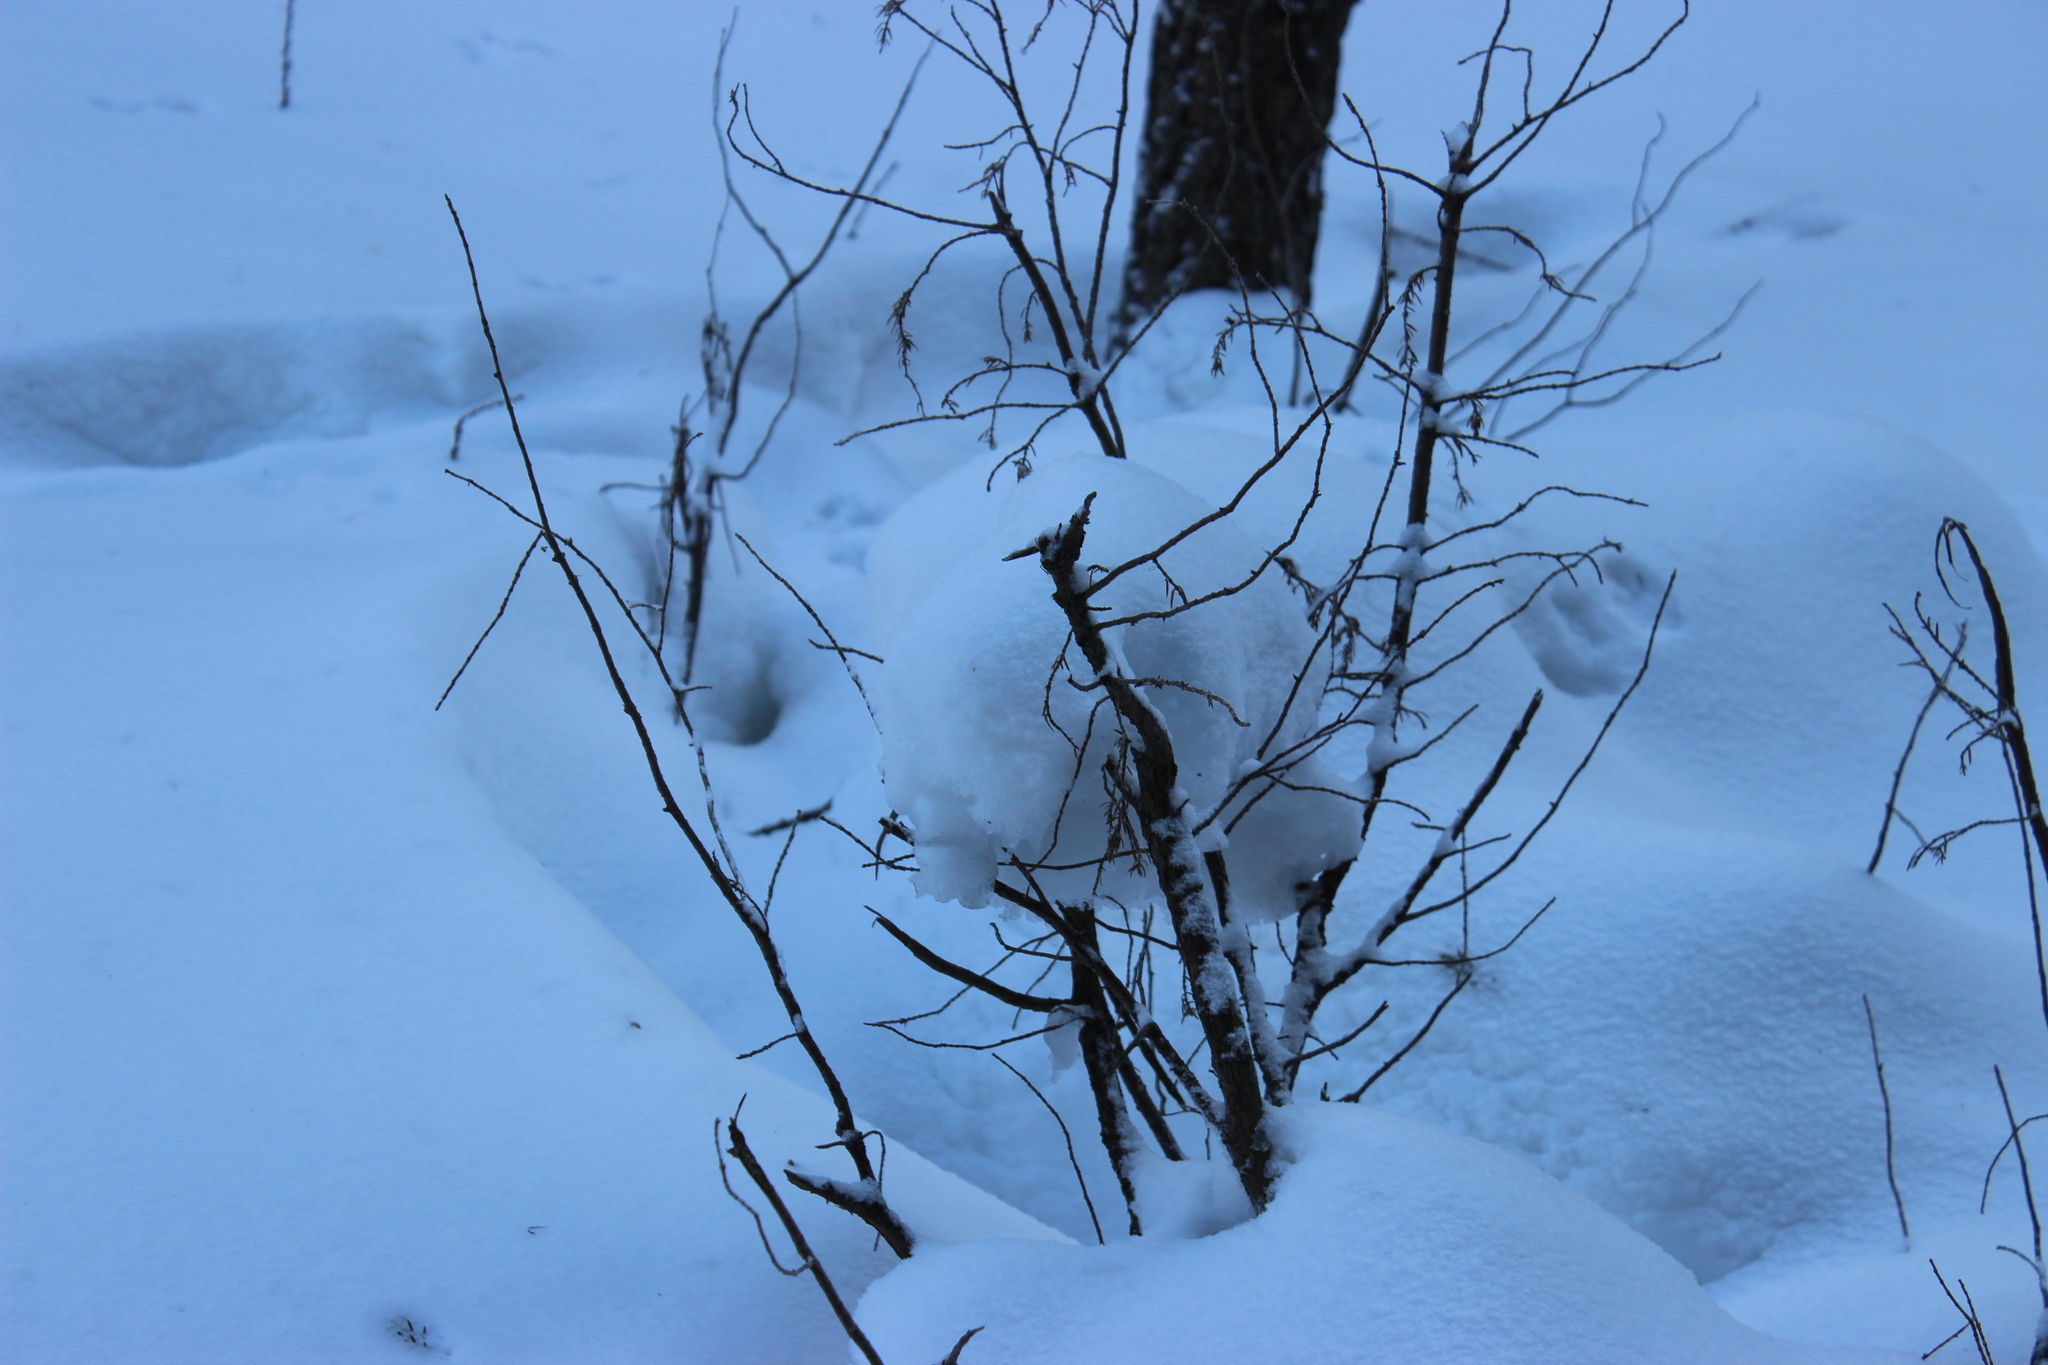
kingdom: Plantae
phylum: Tracheophyta
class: Pinopsida
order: Pinales
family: Cupressaceae
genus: Juniperus
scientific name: Juniperus communis
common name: Common juniper
